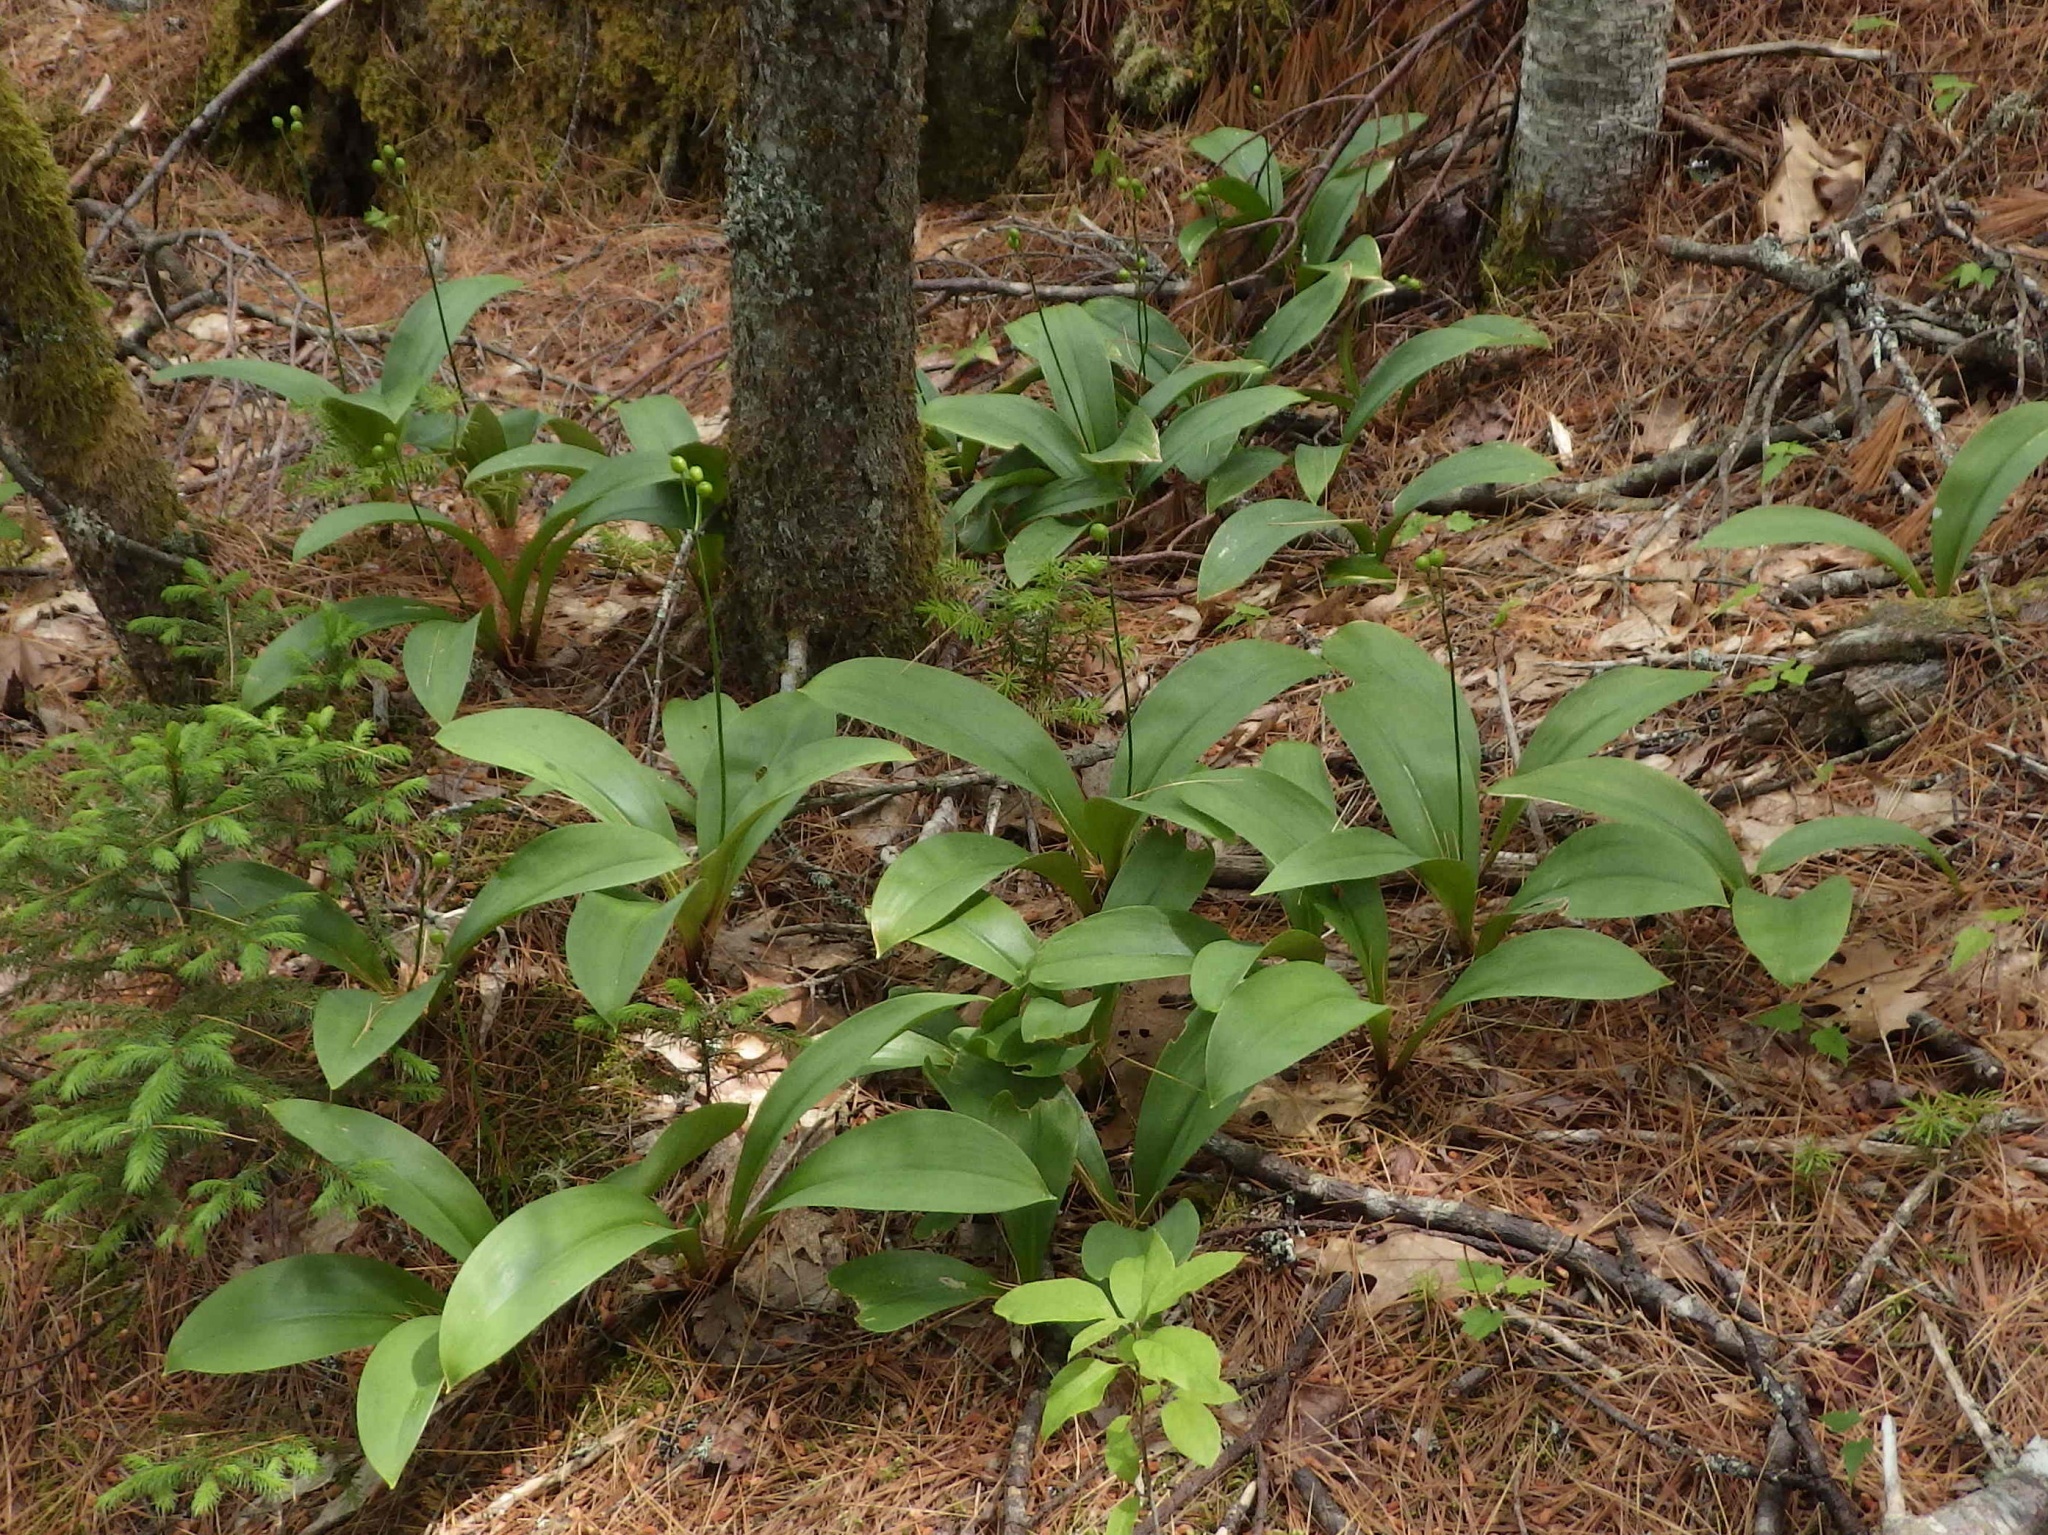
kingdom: Plantae
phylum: Tracheophyta
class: Liliopsida
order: Liliales
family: Liliaceae
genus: Clintonia
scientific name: Clintonia borealis
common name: Yellow clintonia
